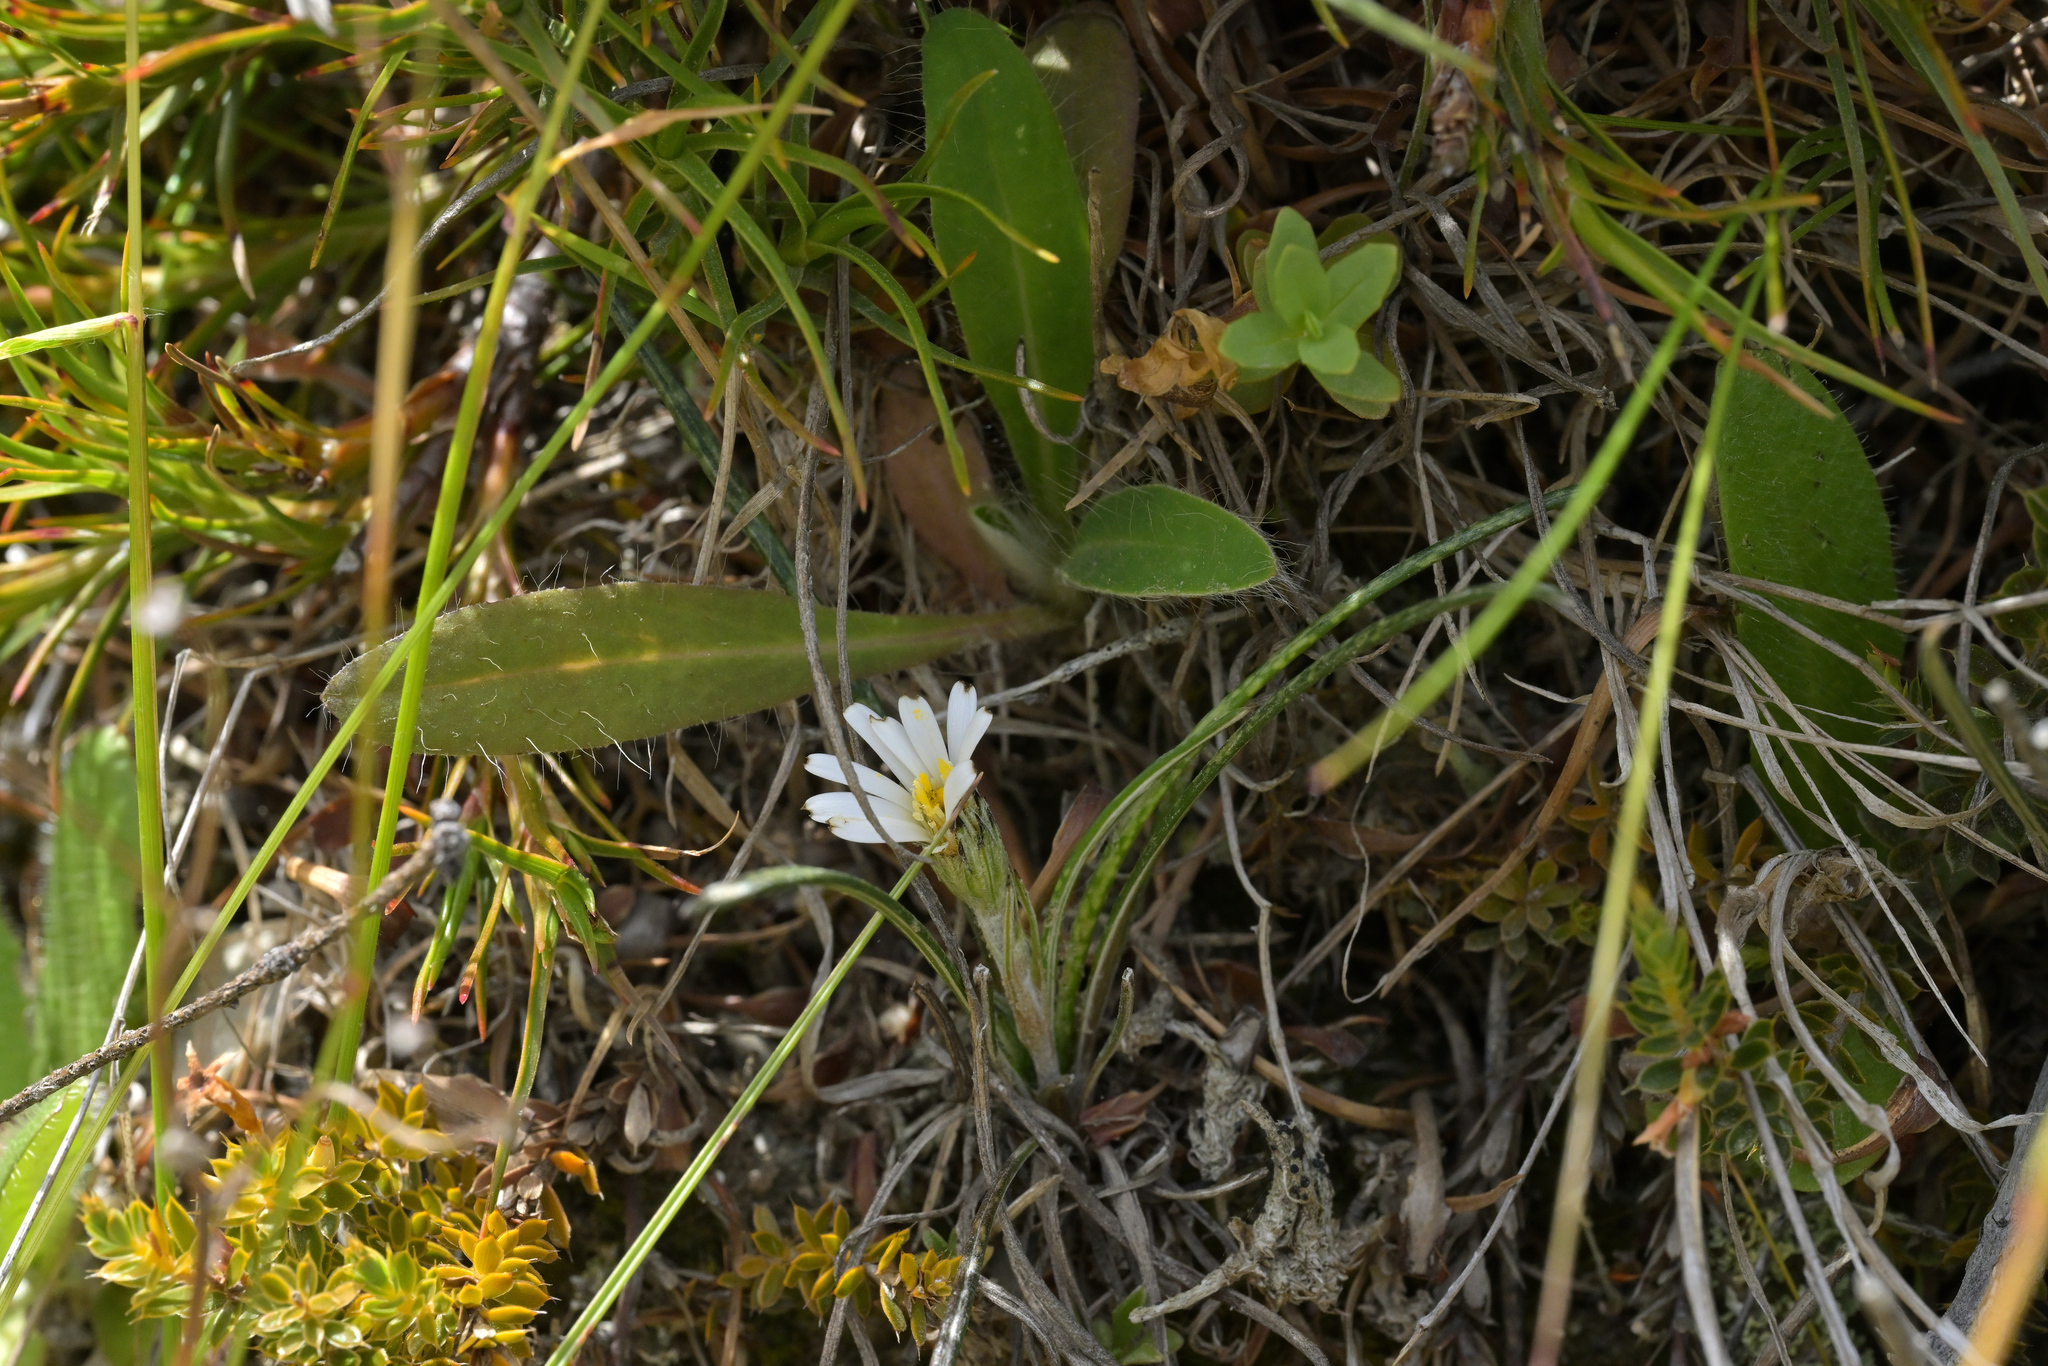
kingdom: Plantae
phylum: Tracheophyta
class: Magnoliopsida
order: Asterales
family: Asteraceae
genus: Celmisia
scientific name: Celmisia gracilenta
